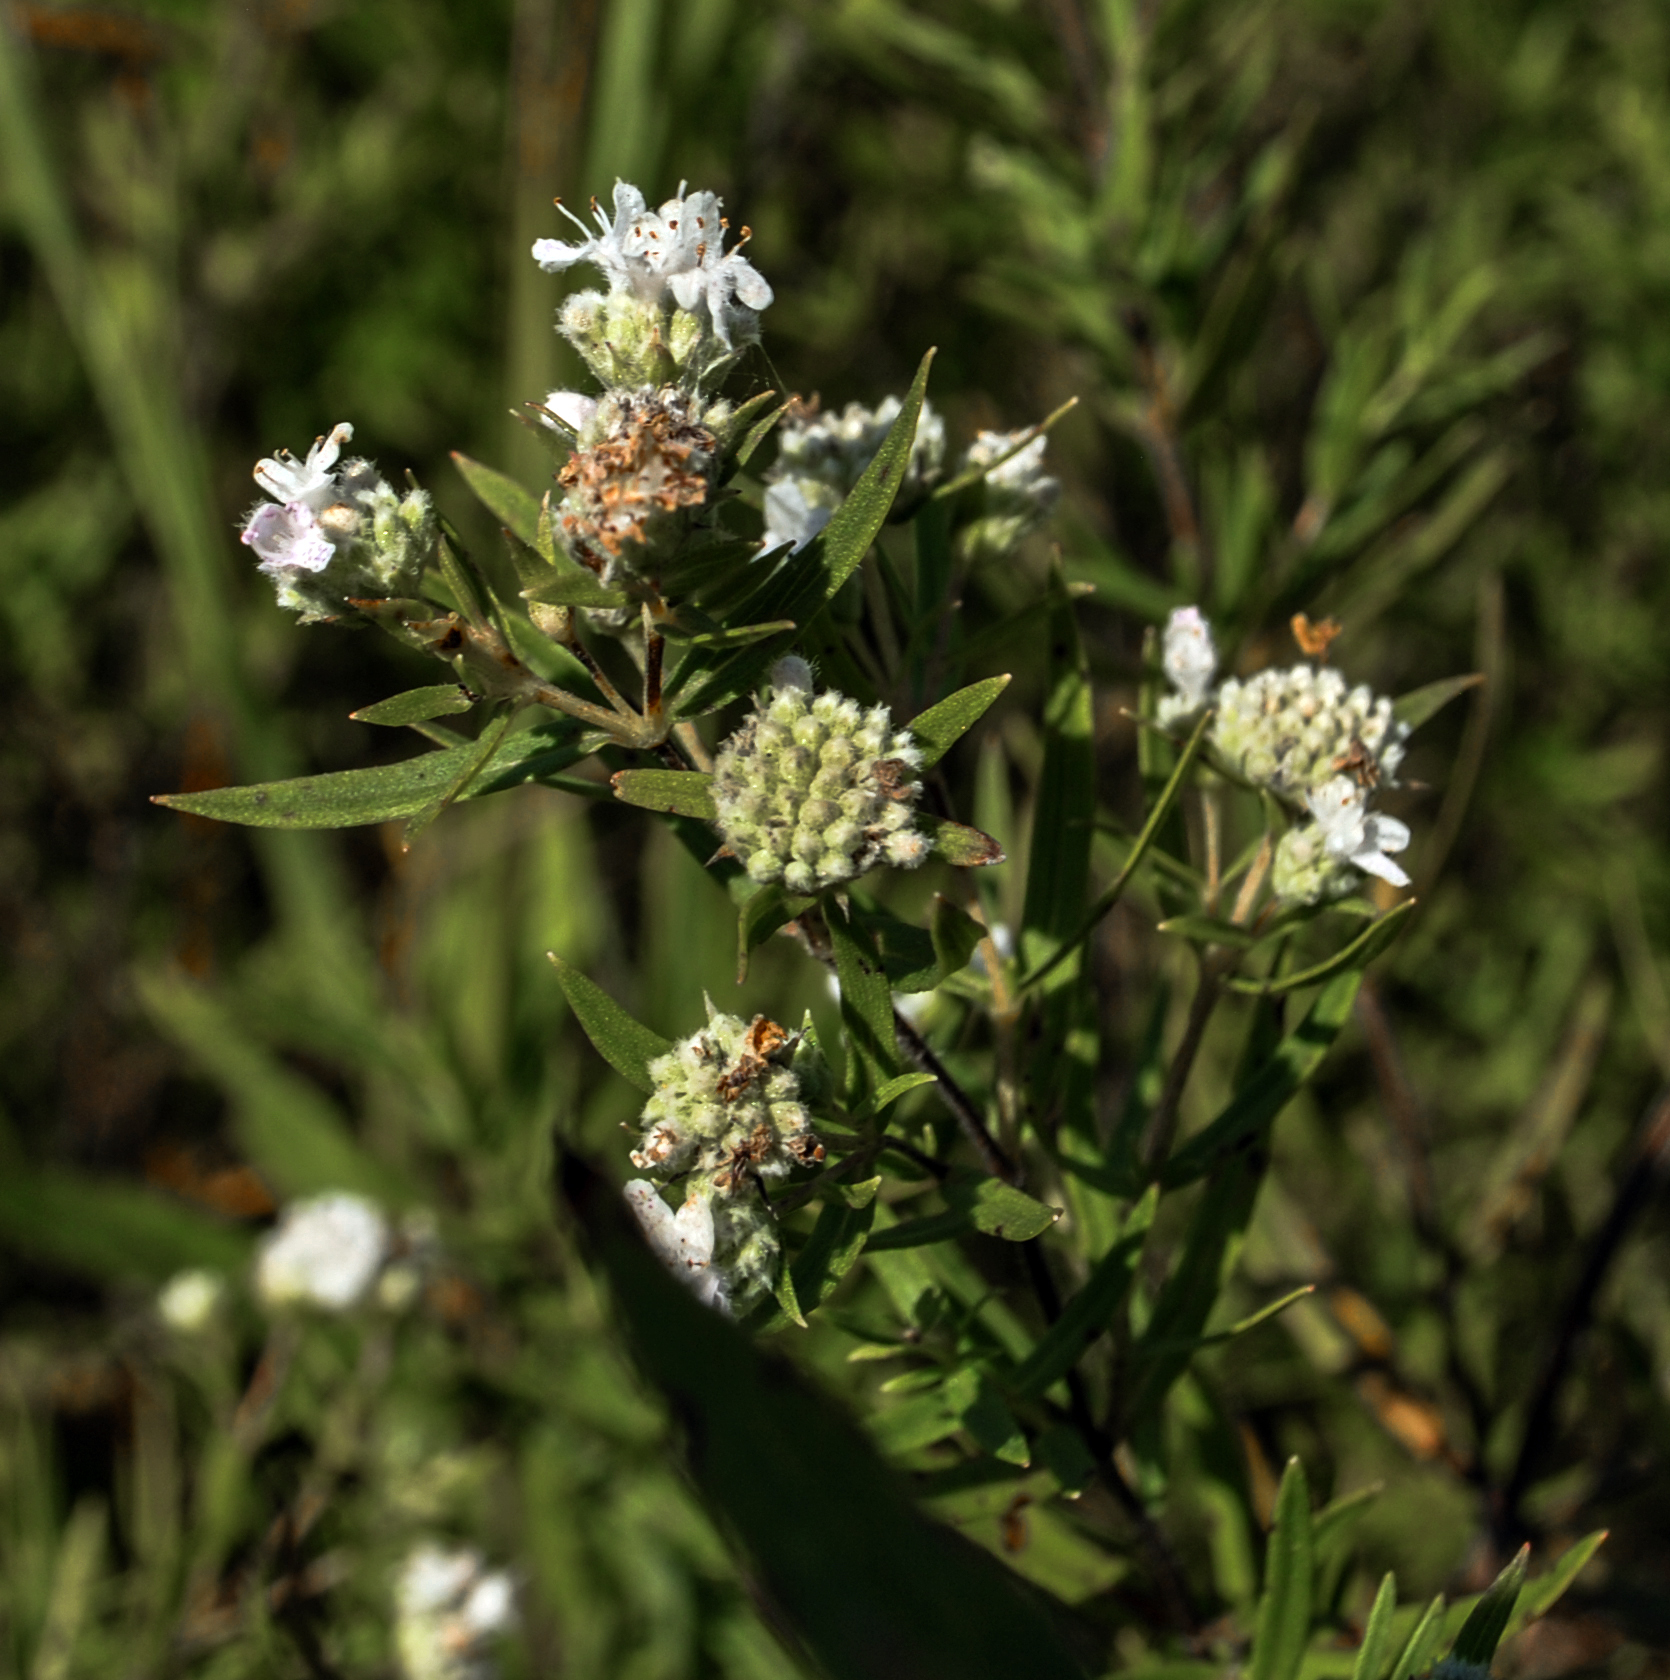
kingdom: Plantae
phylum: Tracheophyta
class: Magnoliopsida
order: Lamiales
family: Lamiaceae
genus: Pycnanthemum
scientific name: Pycnanthemum virginianum
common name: Virginia mountain-mint
